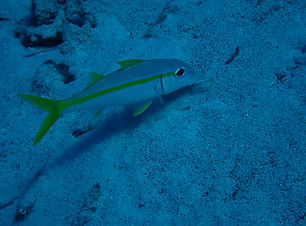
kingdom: Animalia
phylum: Chordata
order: Perciformes
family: Mullidae
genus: Mulloidichthys
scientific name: Mulloidichthys martinicus
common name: Yellow goatfish
